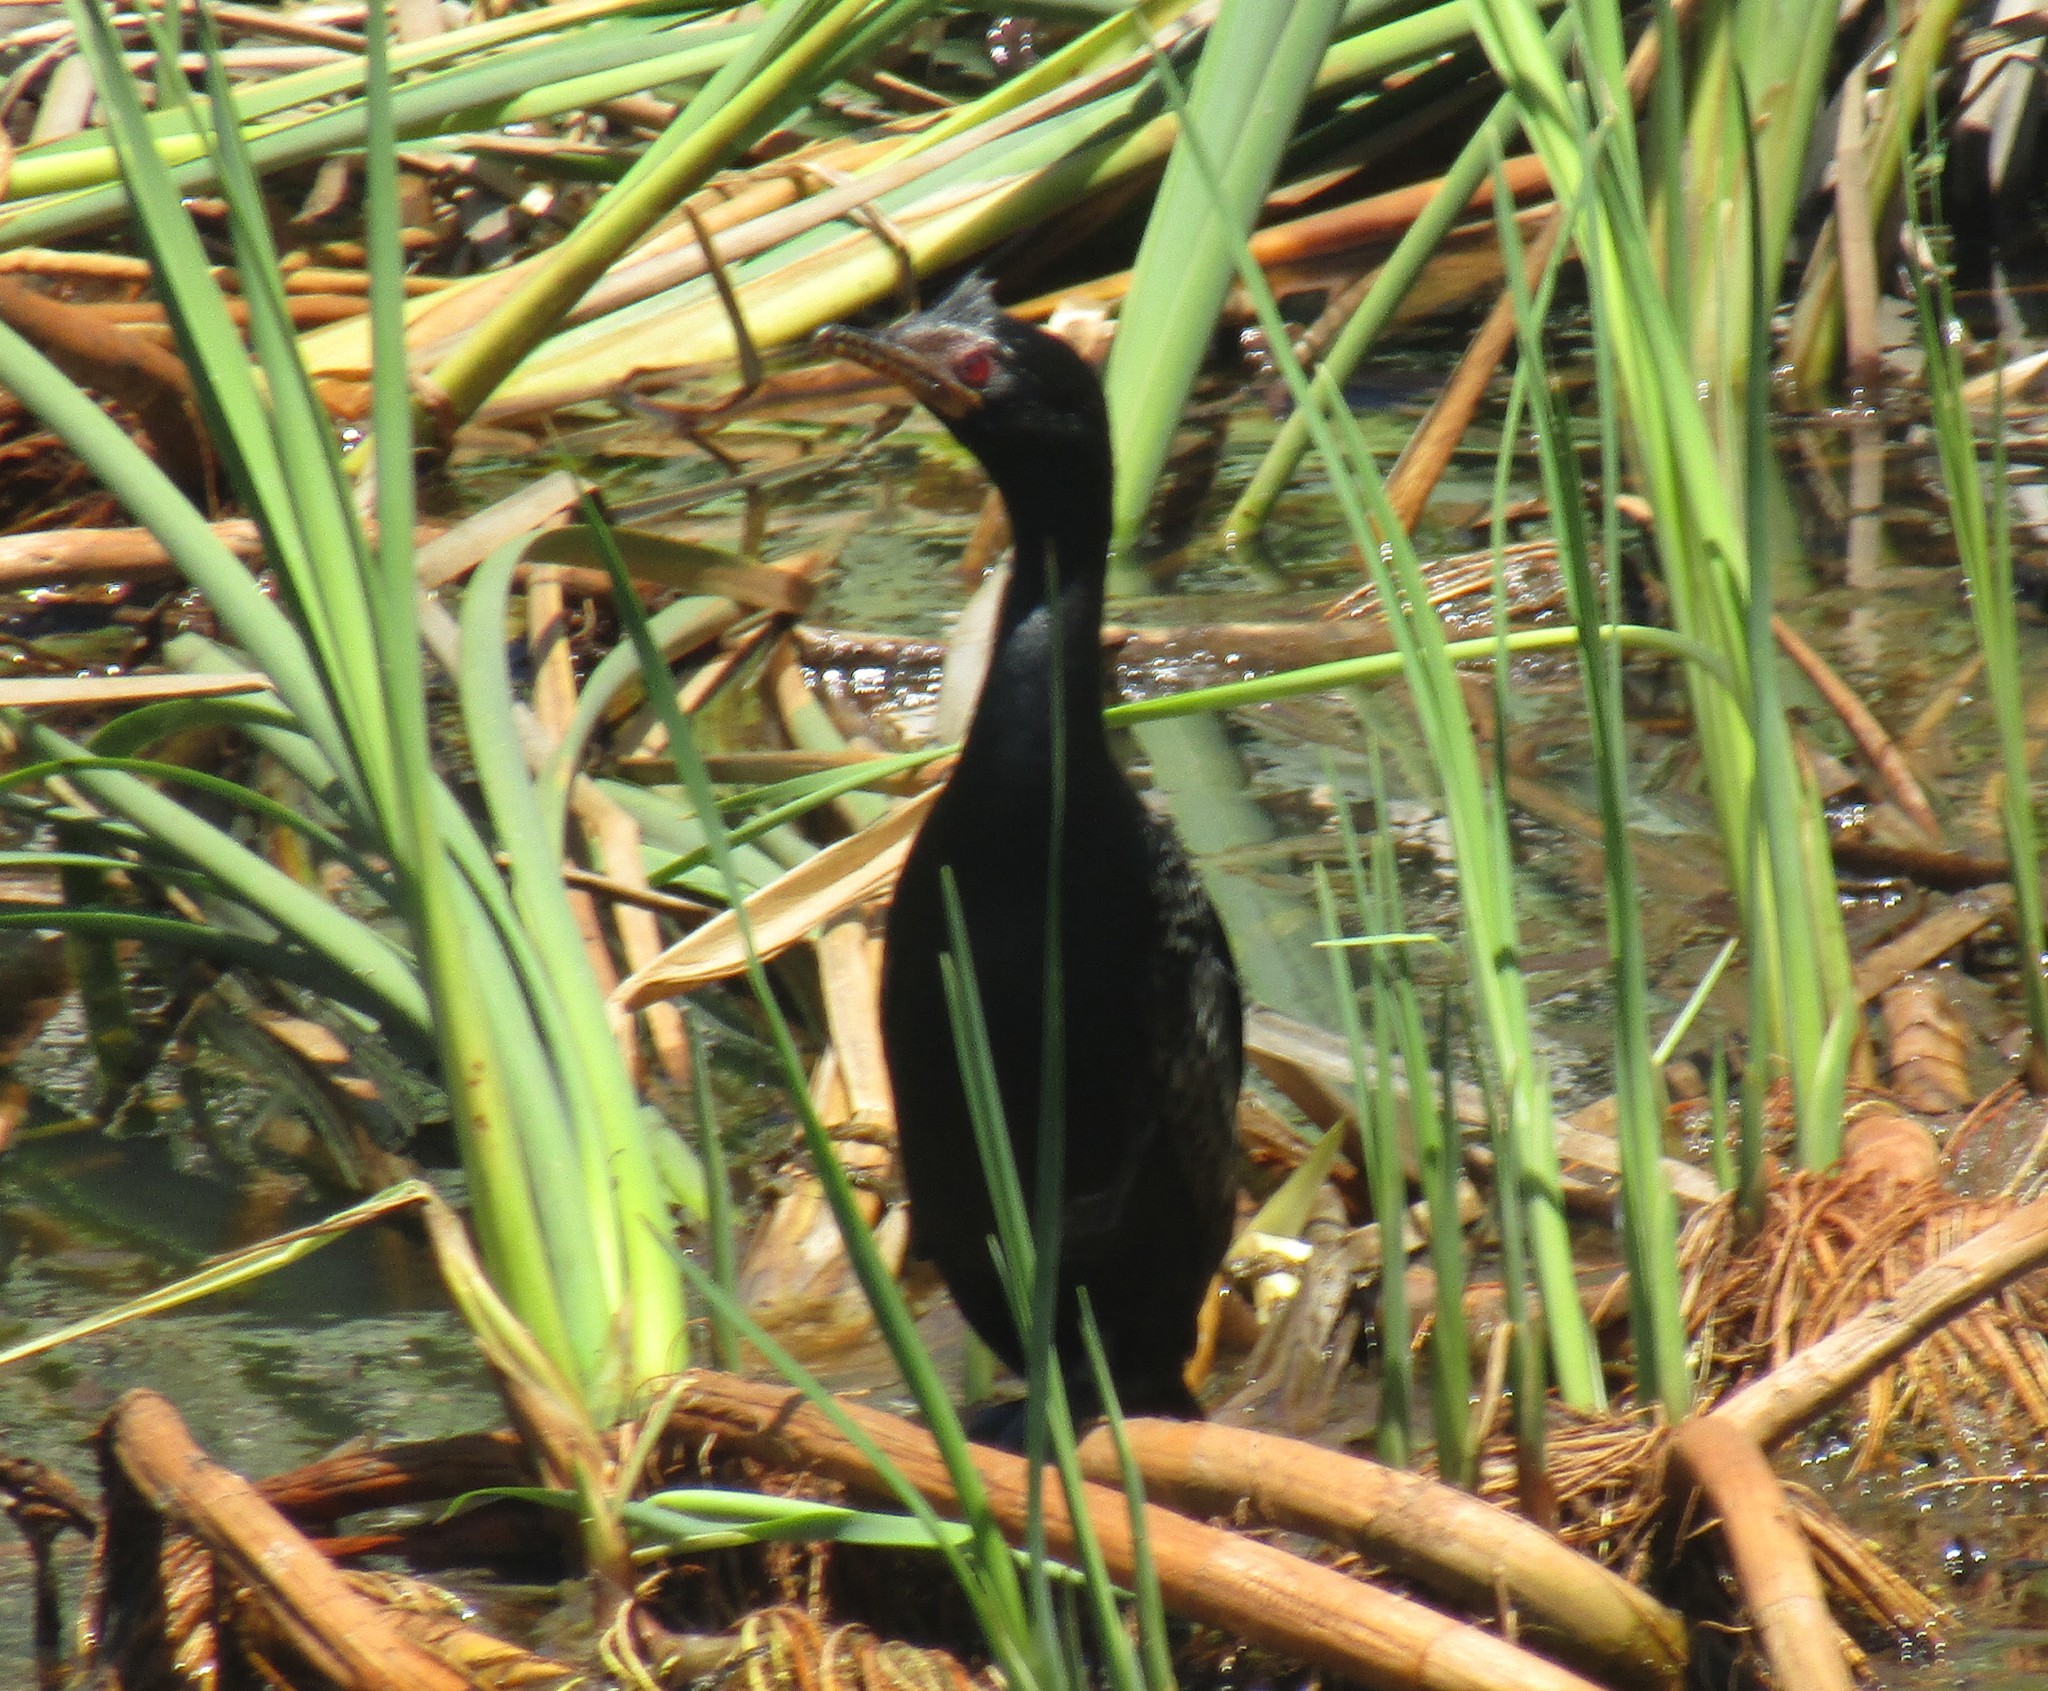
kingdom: Animalia
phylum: Chordata
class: Aves
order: Suliformes
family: Phalacrocoracidae
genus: Microcarbo
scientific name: Microcarbo africanus
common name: Long-tailed cormorant
